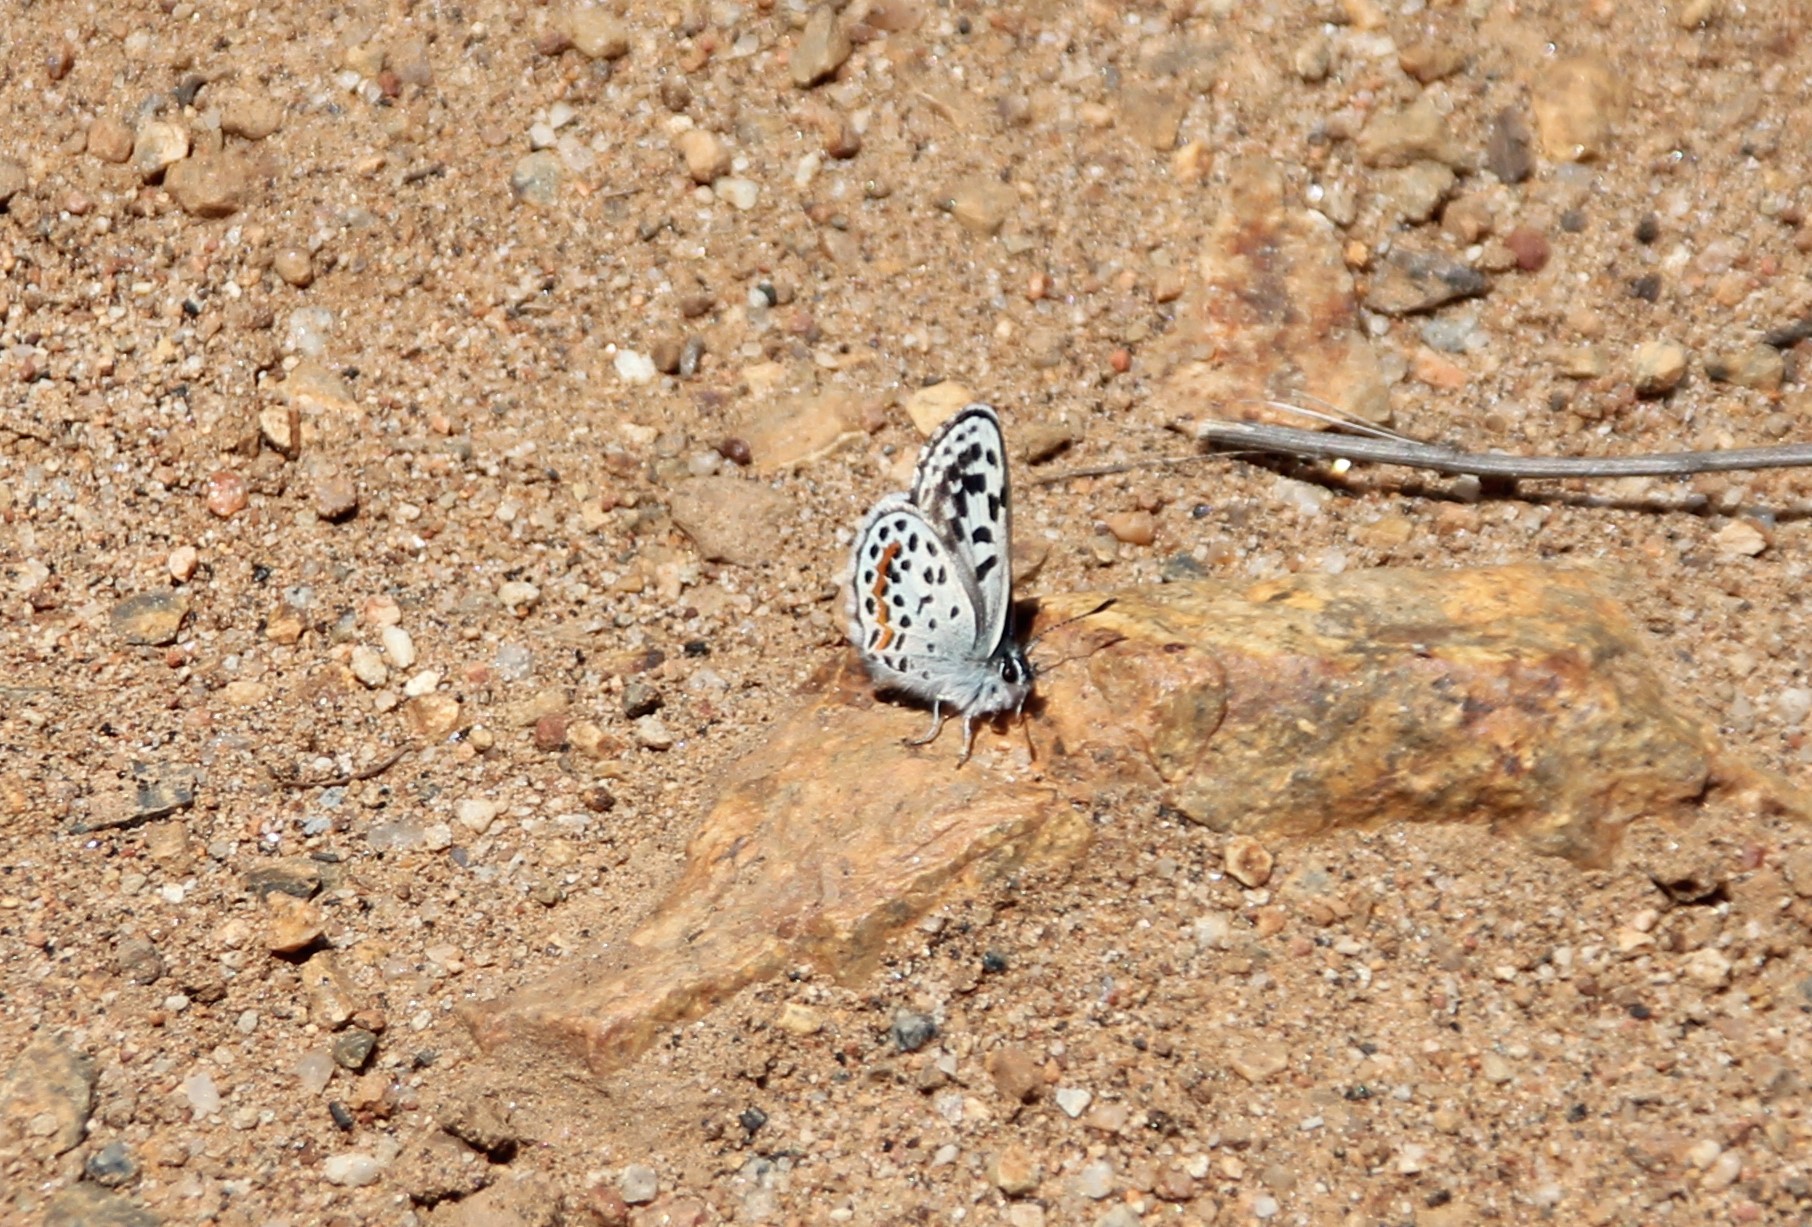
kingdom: Animalia
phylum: Arthropoda
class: Insecta
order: Lepidoptera
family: Lycaenidae
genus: Philotes
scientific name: Philotes bernardino
